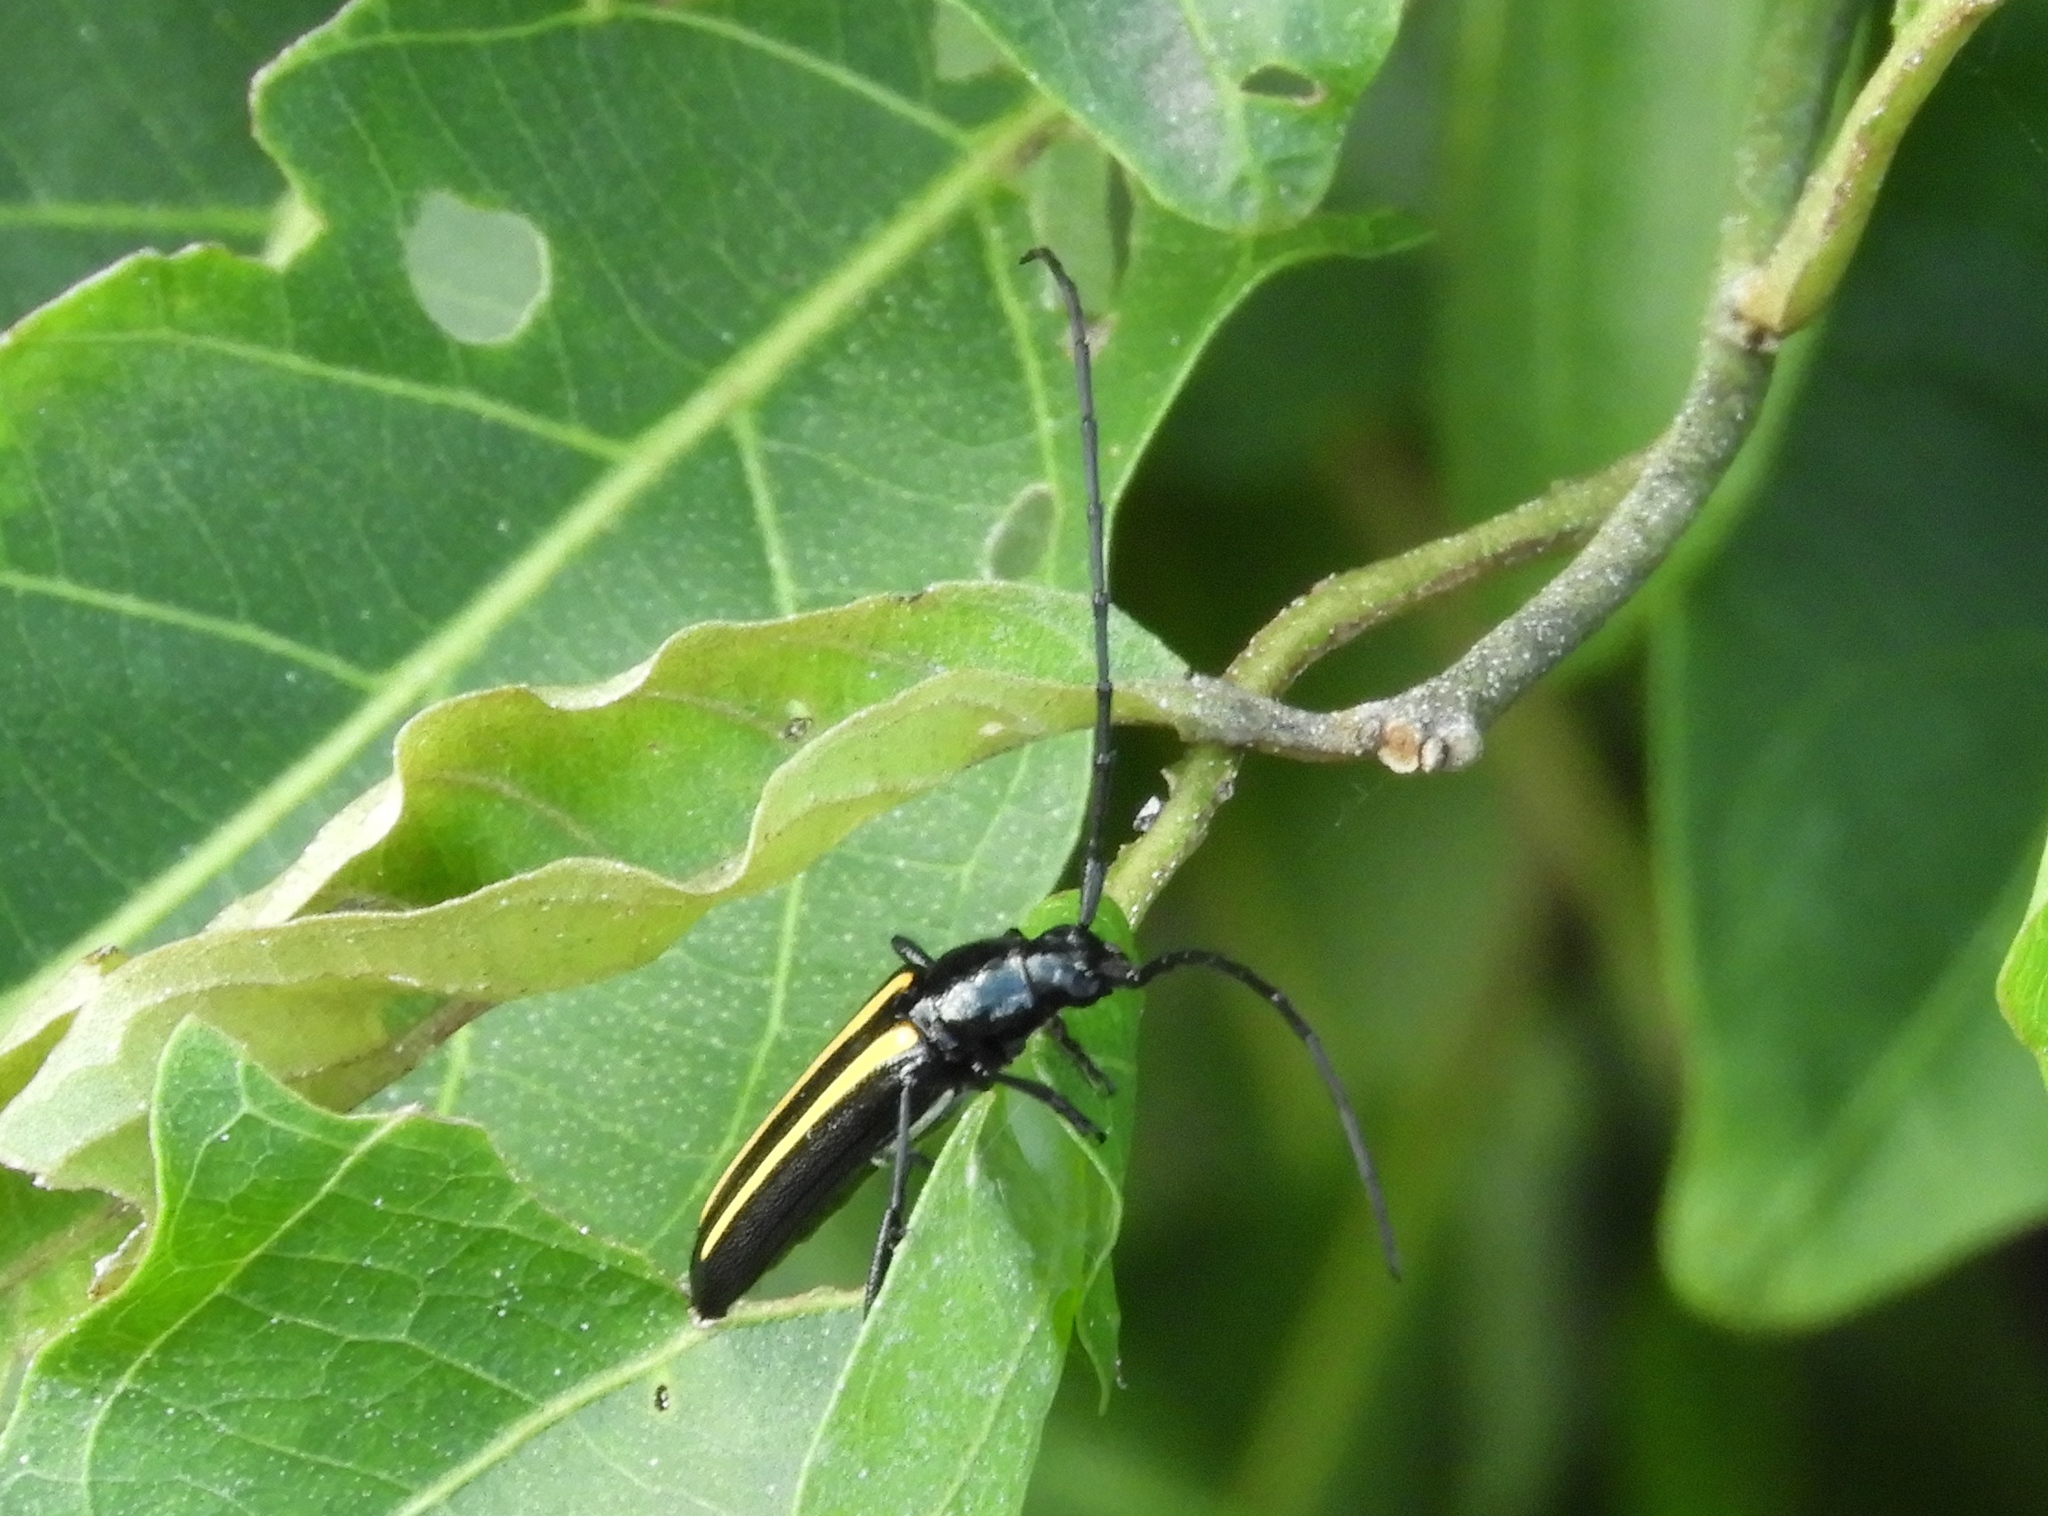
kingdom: Animalia
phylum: Arthropoda
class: Insecta
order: Coleoptera
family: Cerambycidae
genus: Lophalia
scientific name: Lophalia prolata
